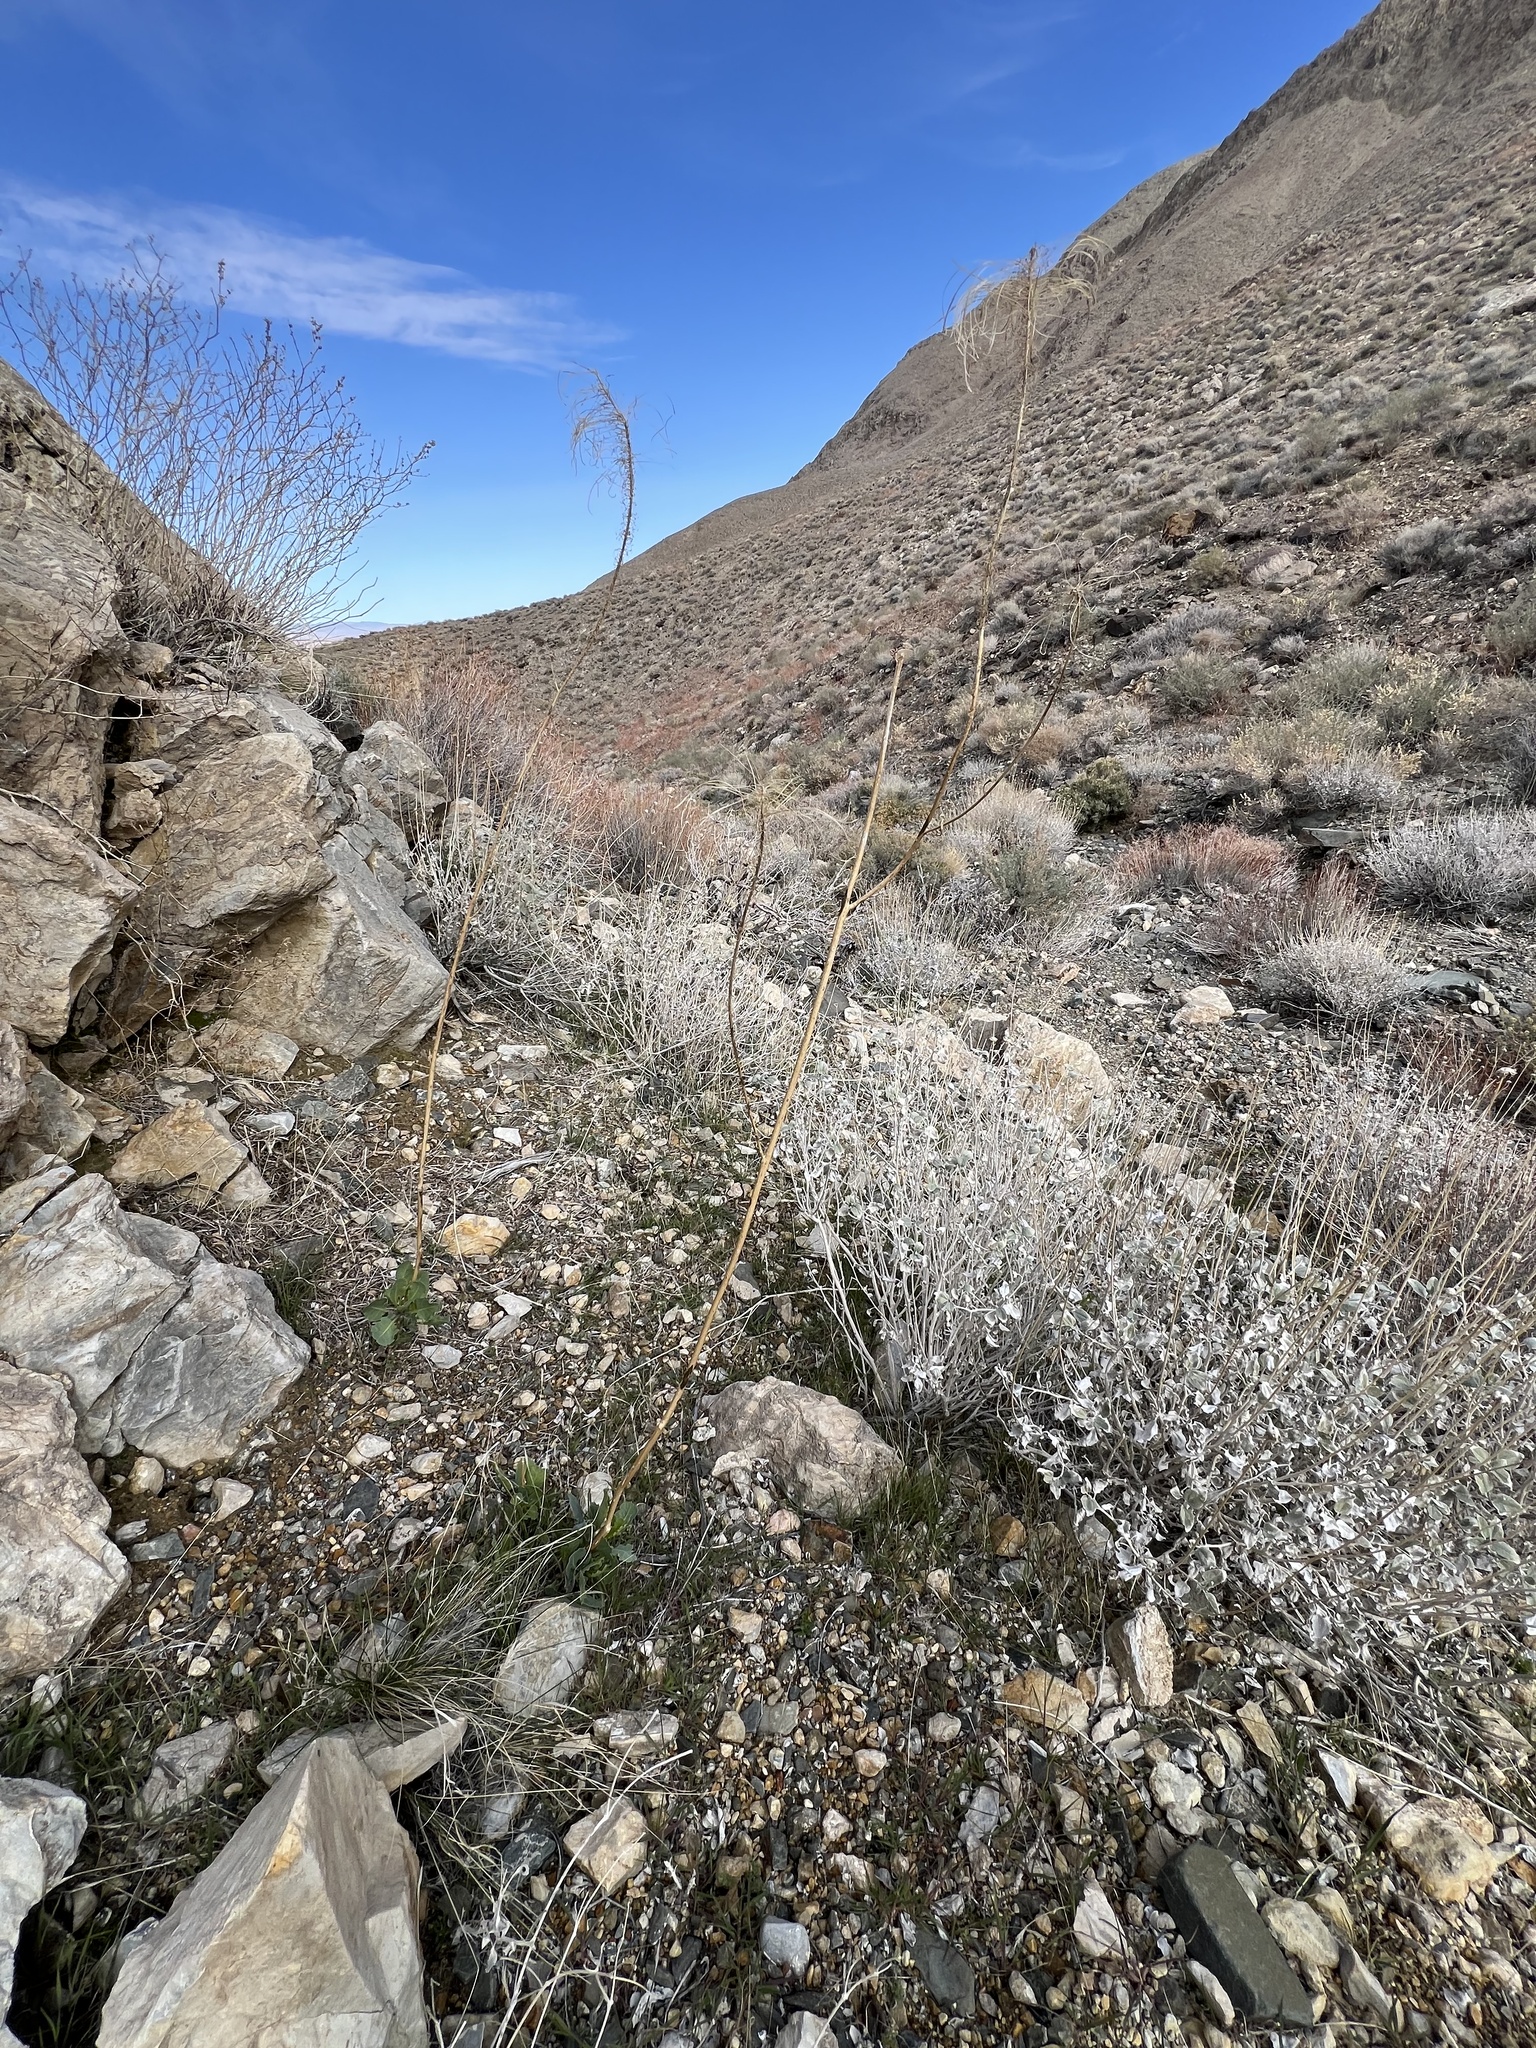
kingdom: Plantae
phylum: Tracheophyta
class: Magnoliopsida
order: Brassicales
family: Brassicaceae
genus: Stanleya
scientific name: Stanleya elata
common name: Panamint prince's plume
